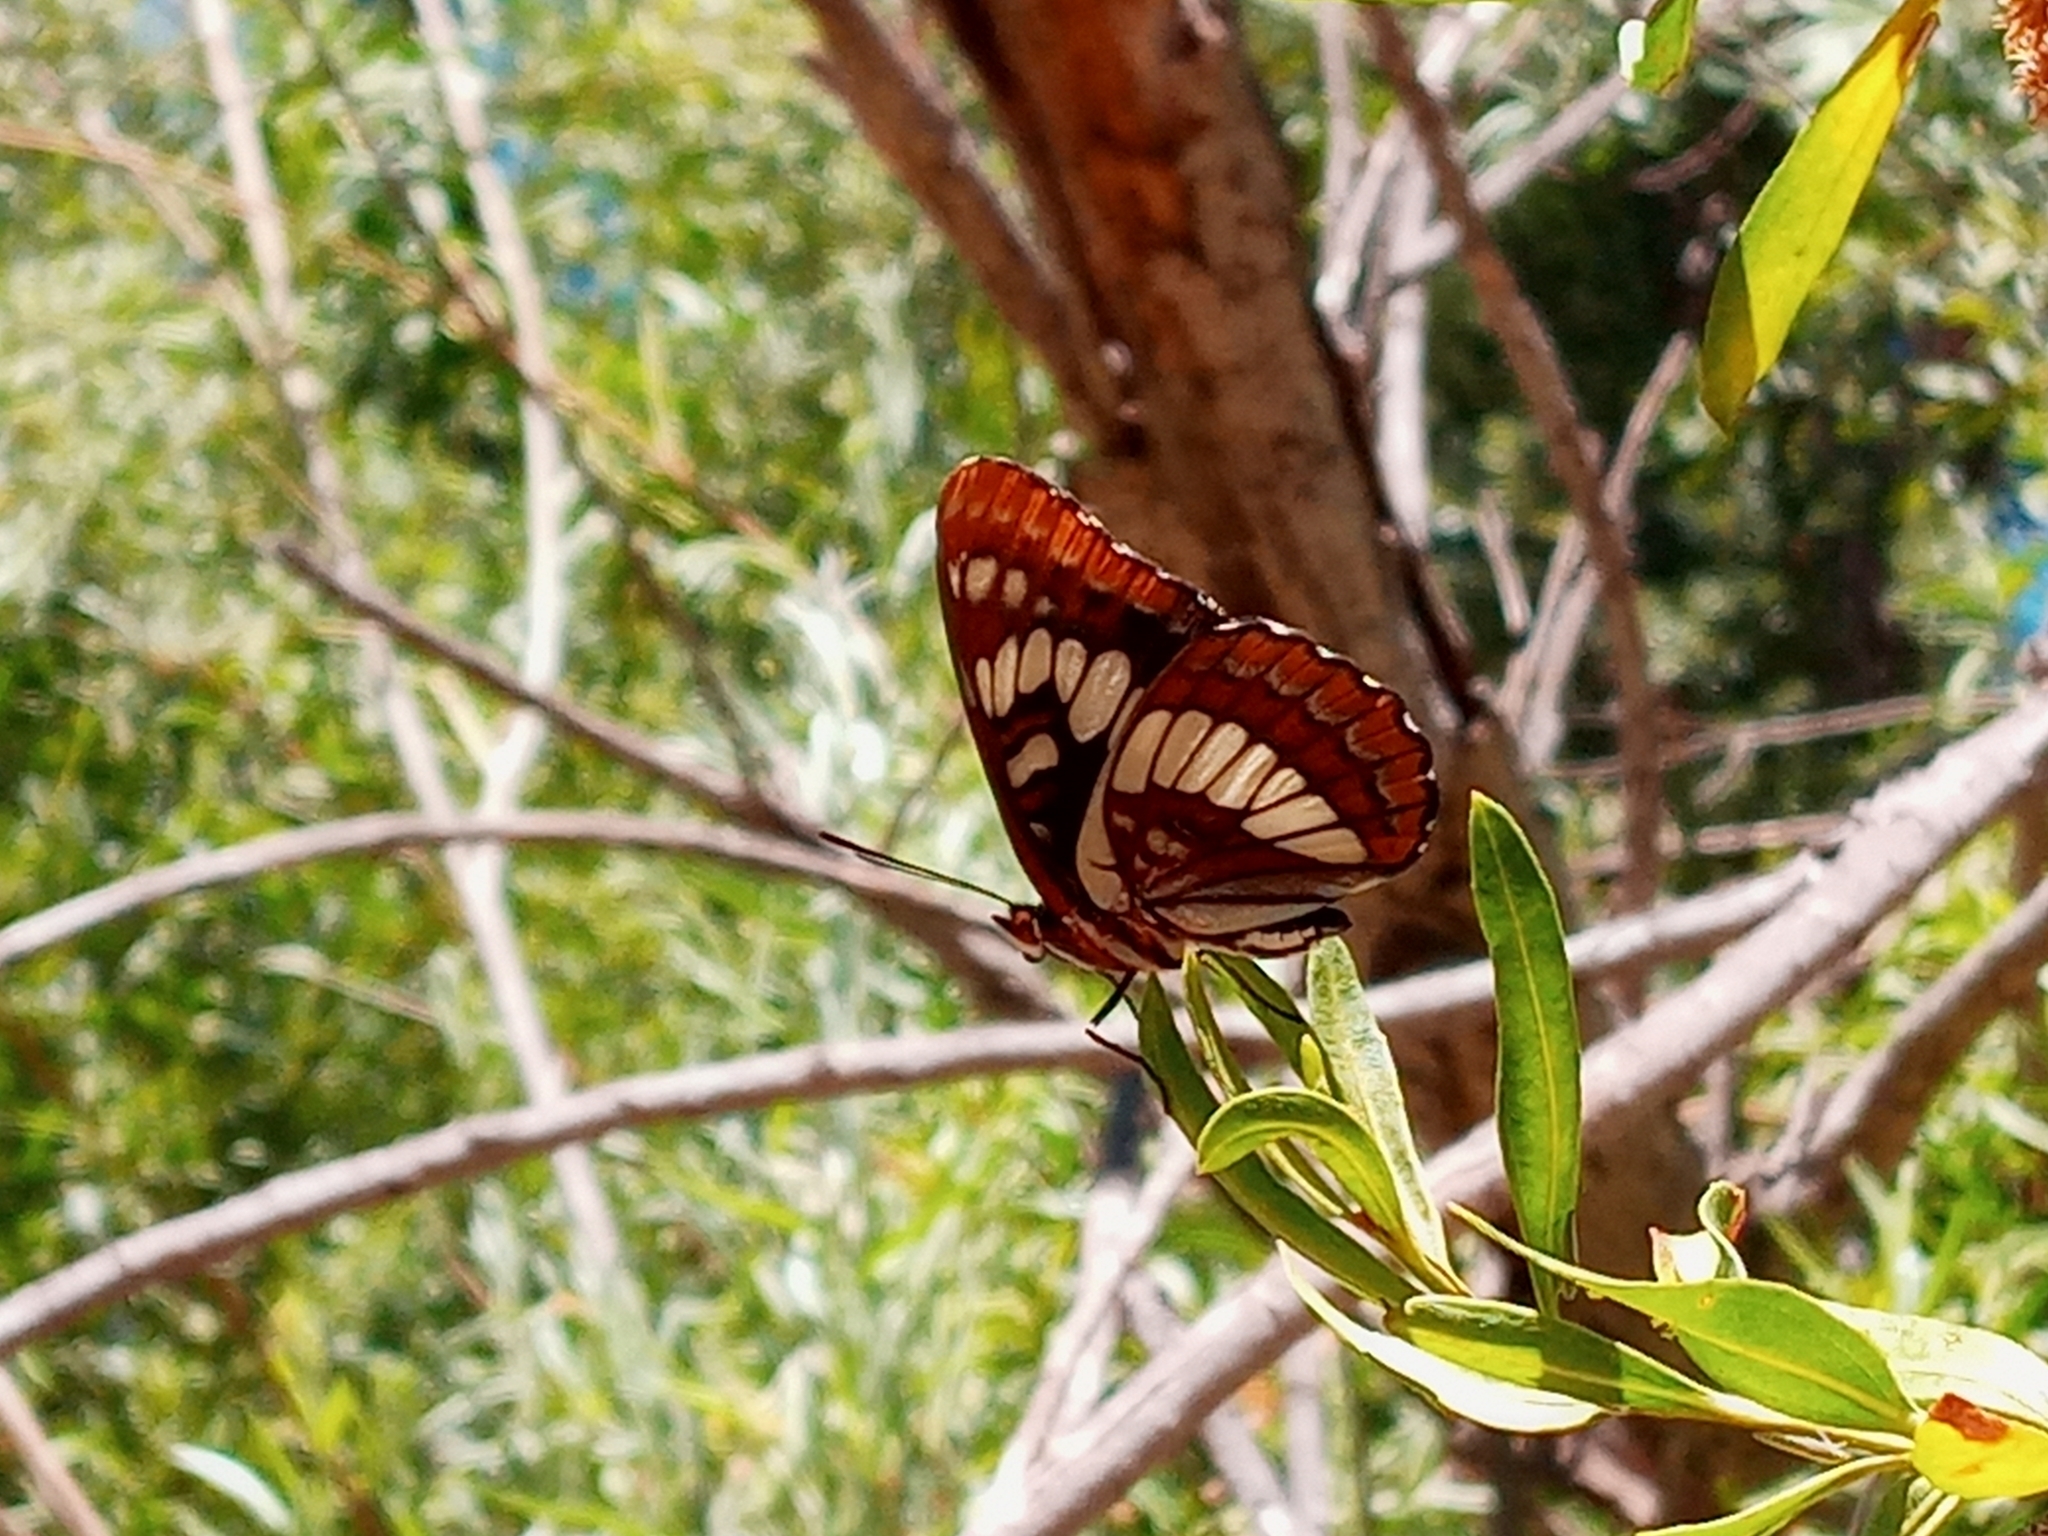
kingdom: Animalia
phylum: Arthropoda
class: Insecta
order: Lepidoptera
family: Nymphalidae
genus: Limenitis
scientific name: Limenitis lorquini
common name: Lorquin's admiral
